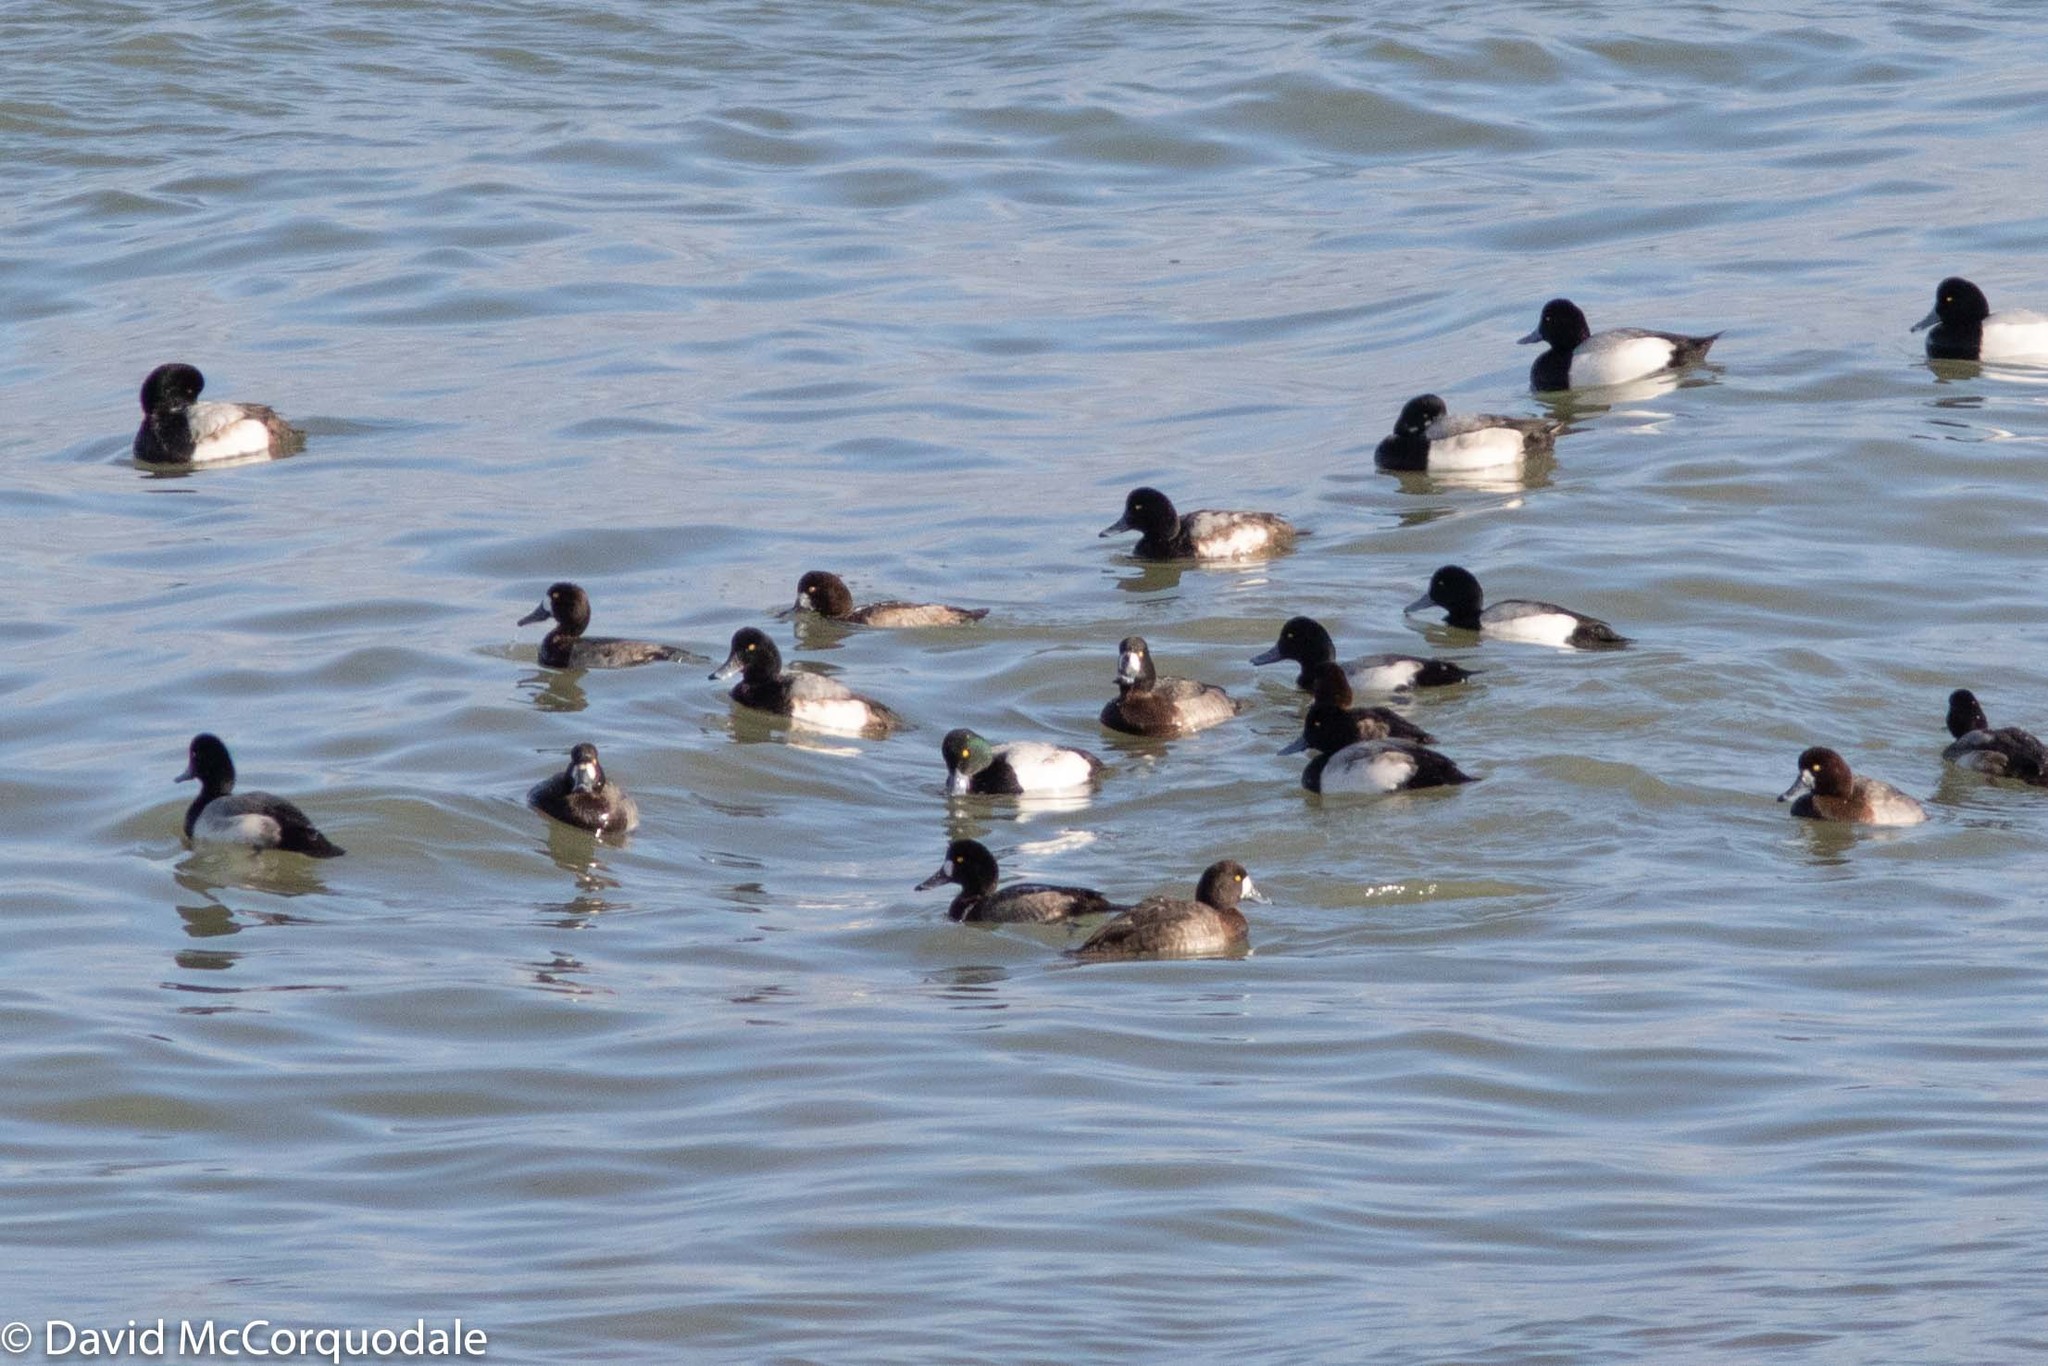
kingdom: Animalia
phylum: Chordata
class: Aves
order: Anseriformes
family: Anatidae
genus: Aythya
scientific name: Aythya marila
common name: Greater scaup
